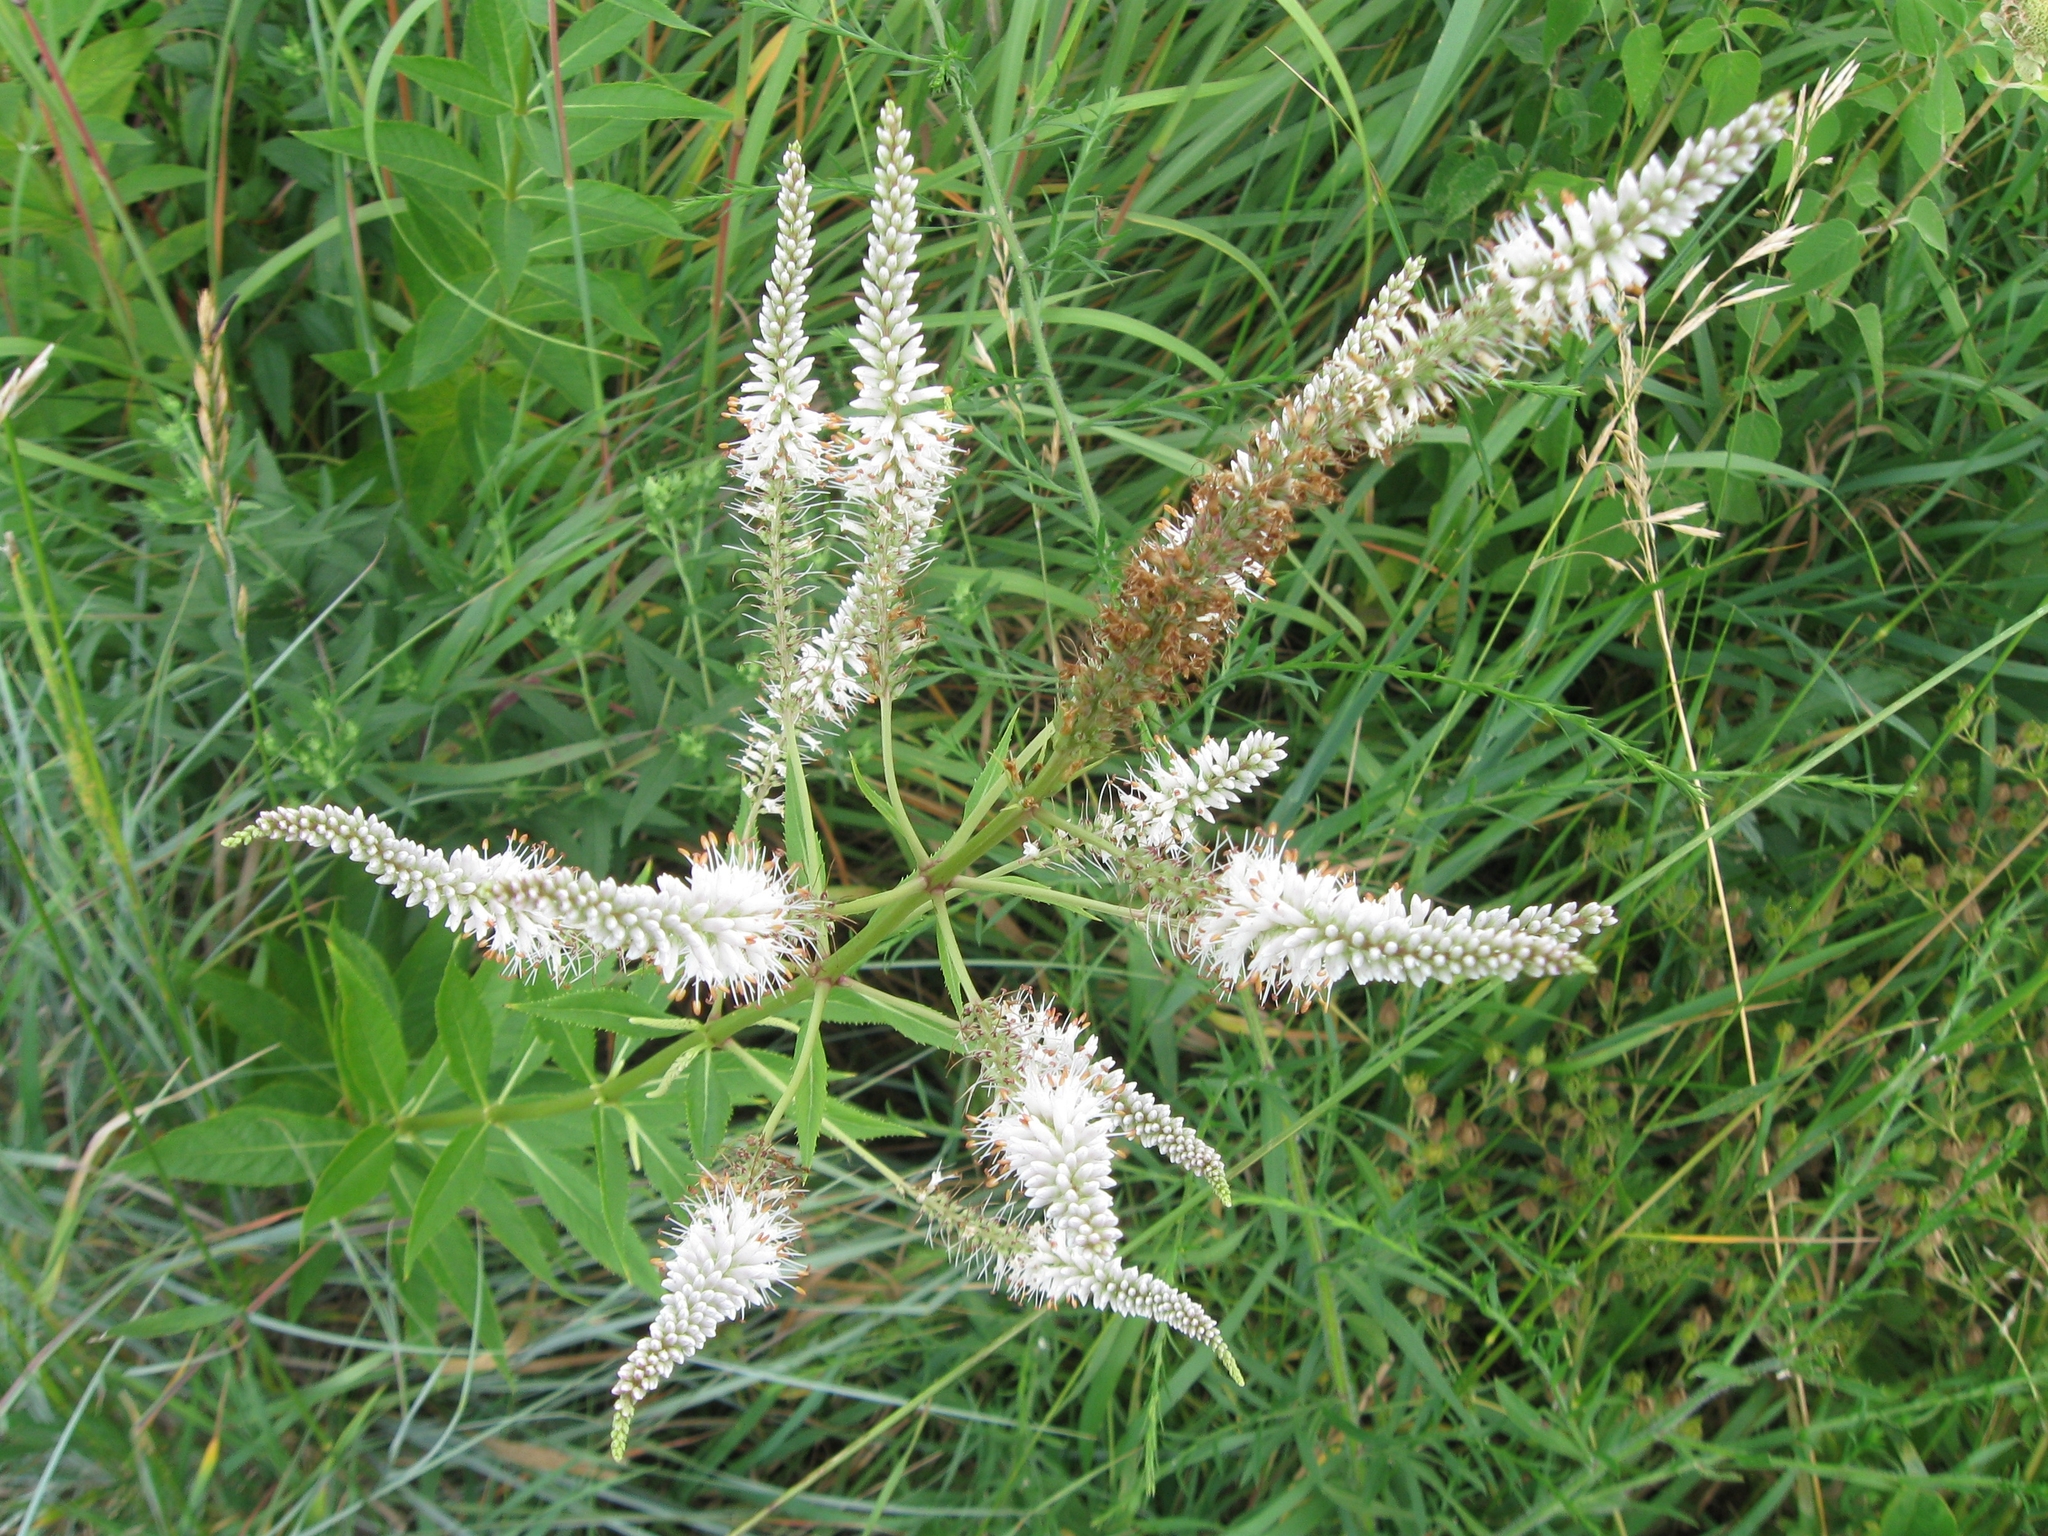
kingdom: Plantae
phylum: Tracheophyta
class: Magnoliopsida
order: Lamiales
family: Plantaginaceae
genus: Veronicastrum
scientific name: Veronicastrum virginicum
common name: Blackroot
